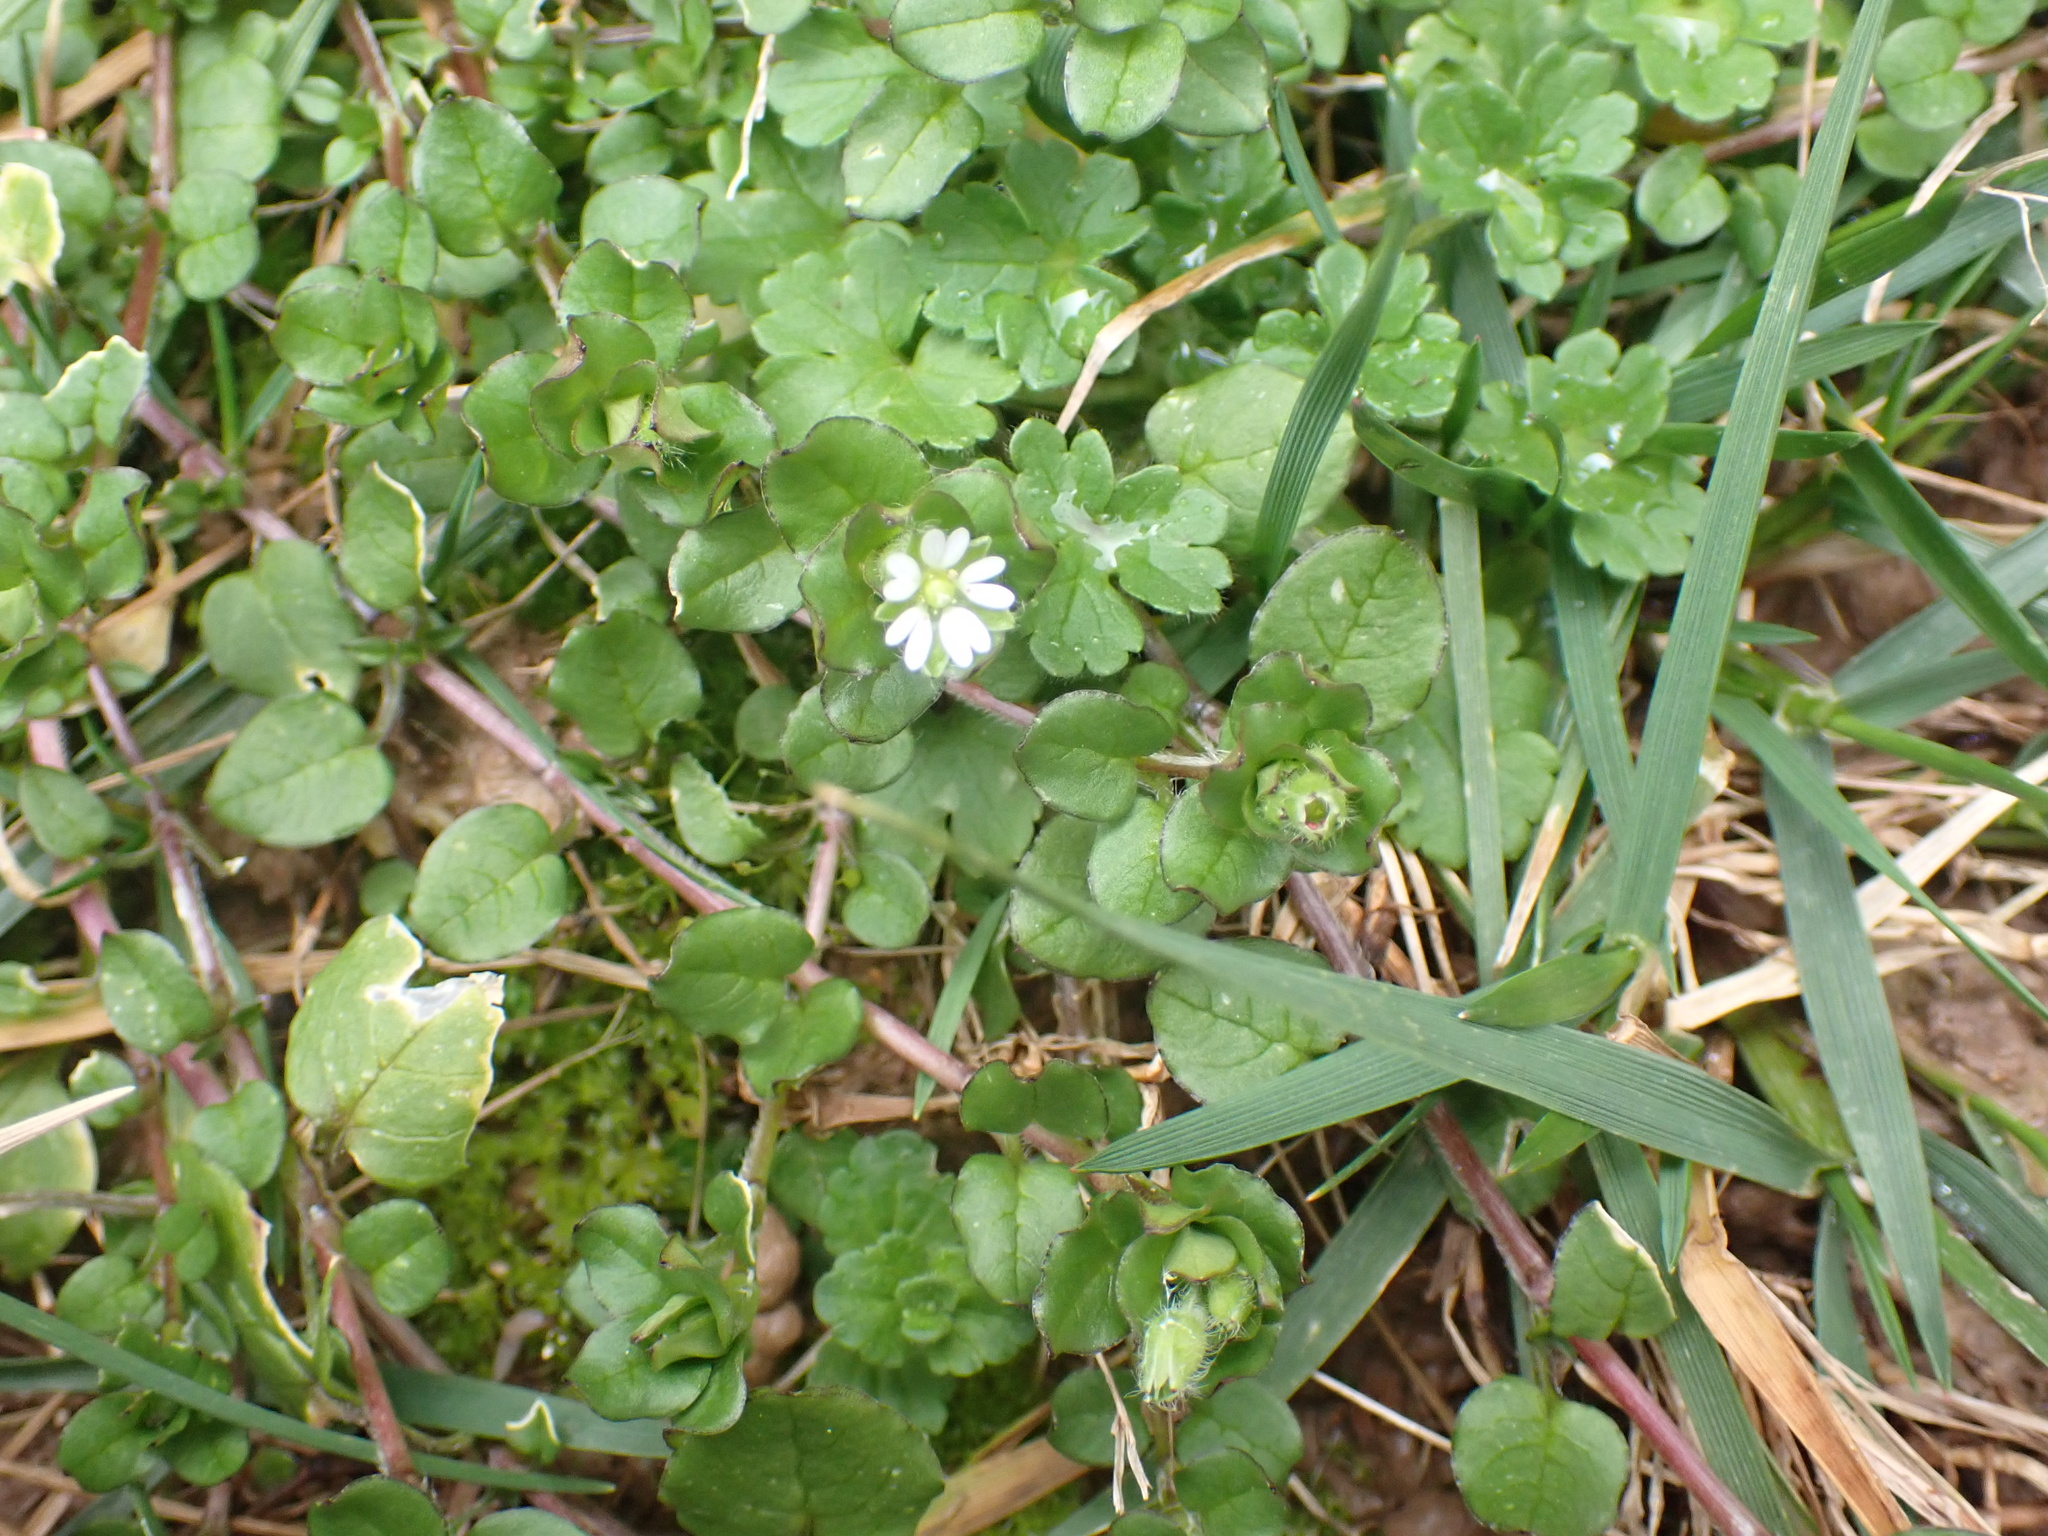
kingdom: Plantae
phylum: Tracheophyta
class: Magnoliopsida
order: Caryophyllales
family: Caryophyllaceae
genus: Stellaria
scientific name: Stellaria media
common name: Common chickweed
